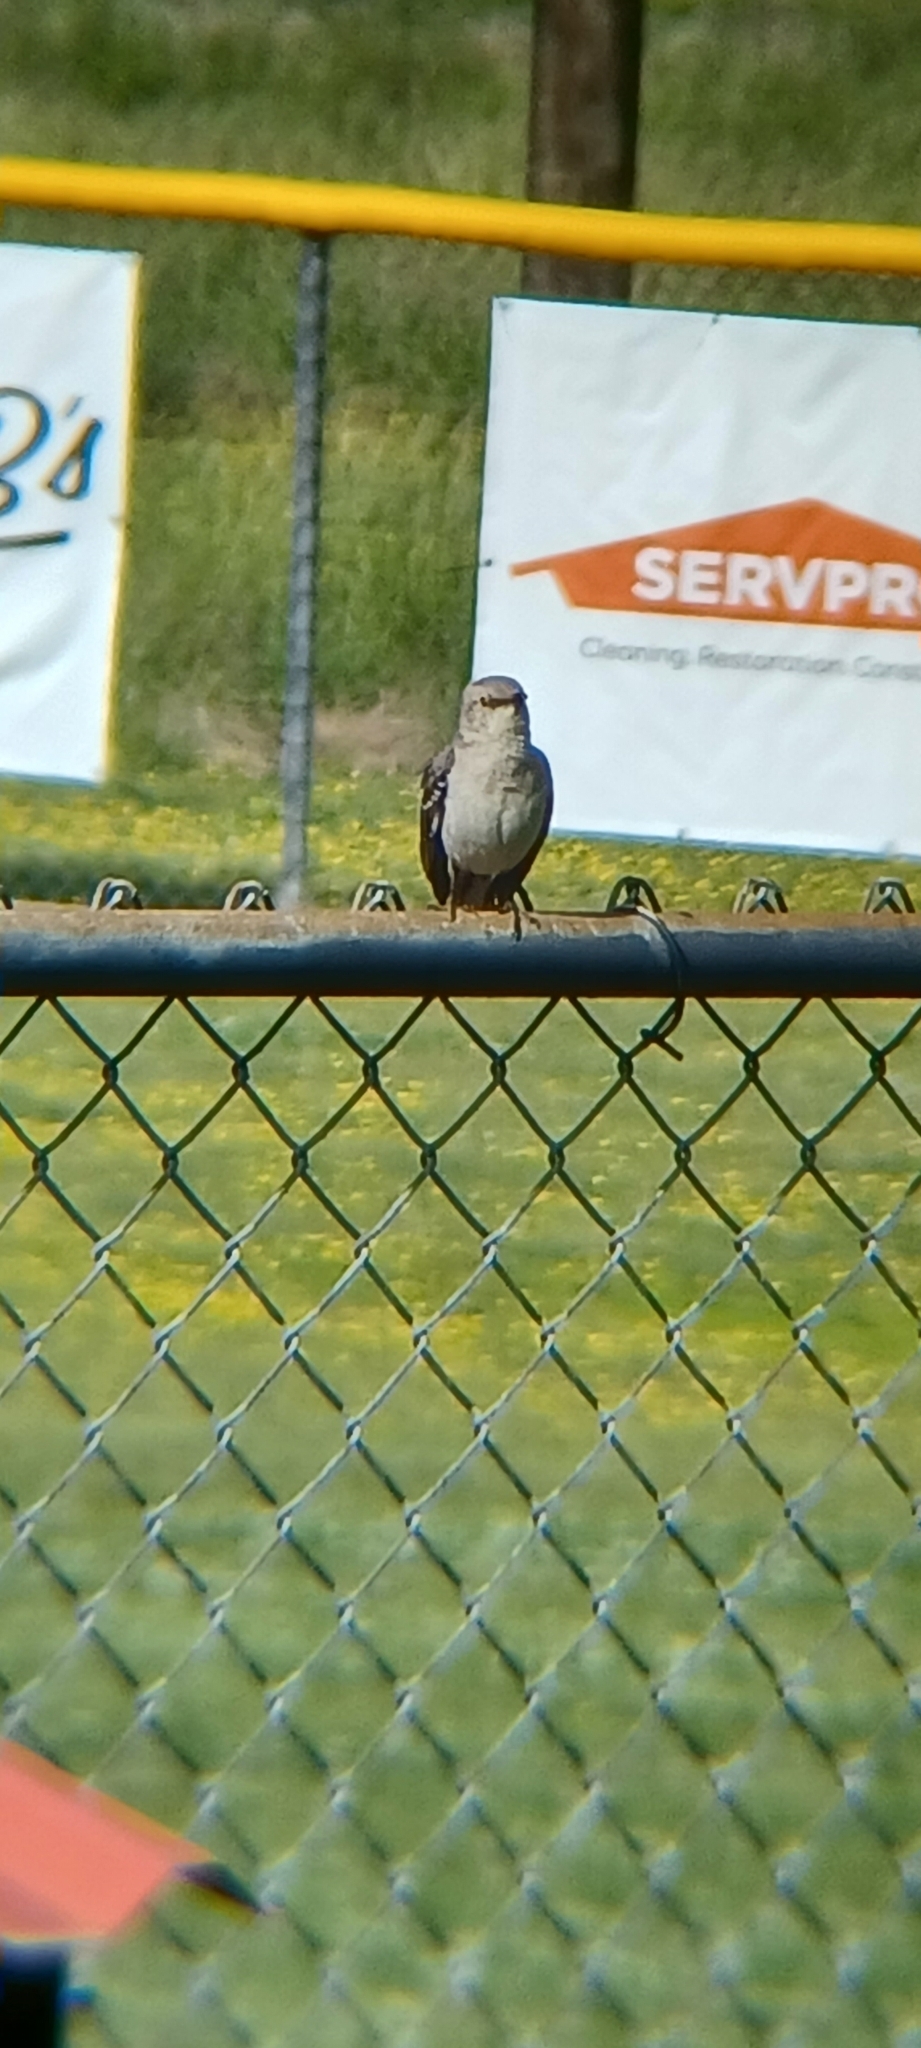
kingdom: Animalia
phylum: Chordata
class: Aves
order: Passeriformes
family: Mimidae
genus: Mimus
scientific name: Mimus polyglottos
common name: Northern mockingbird
